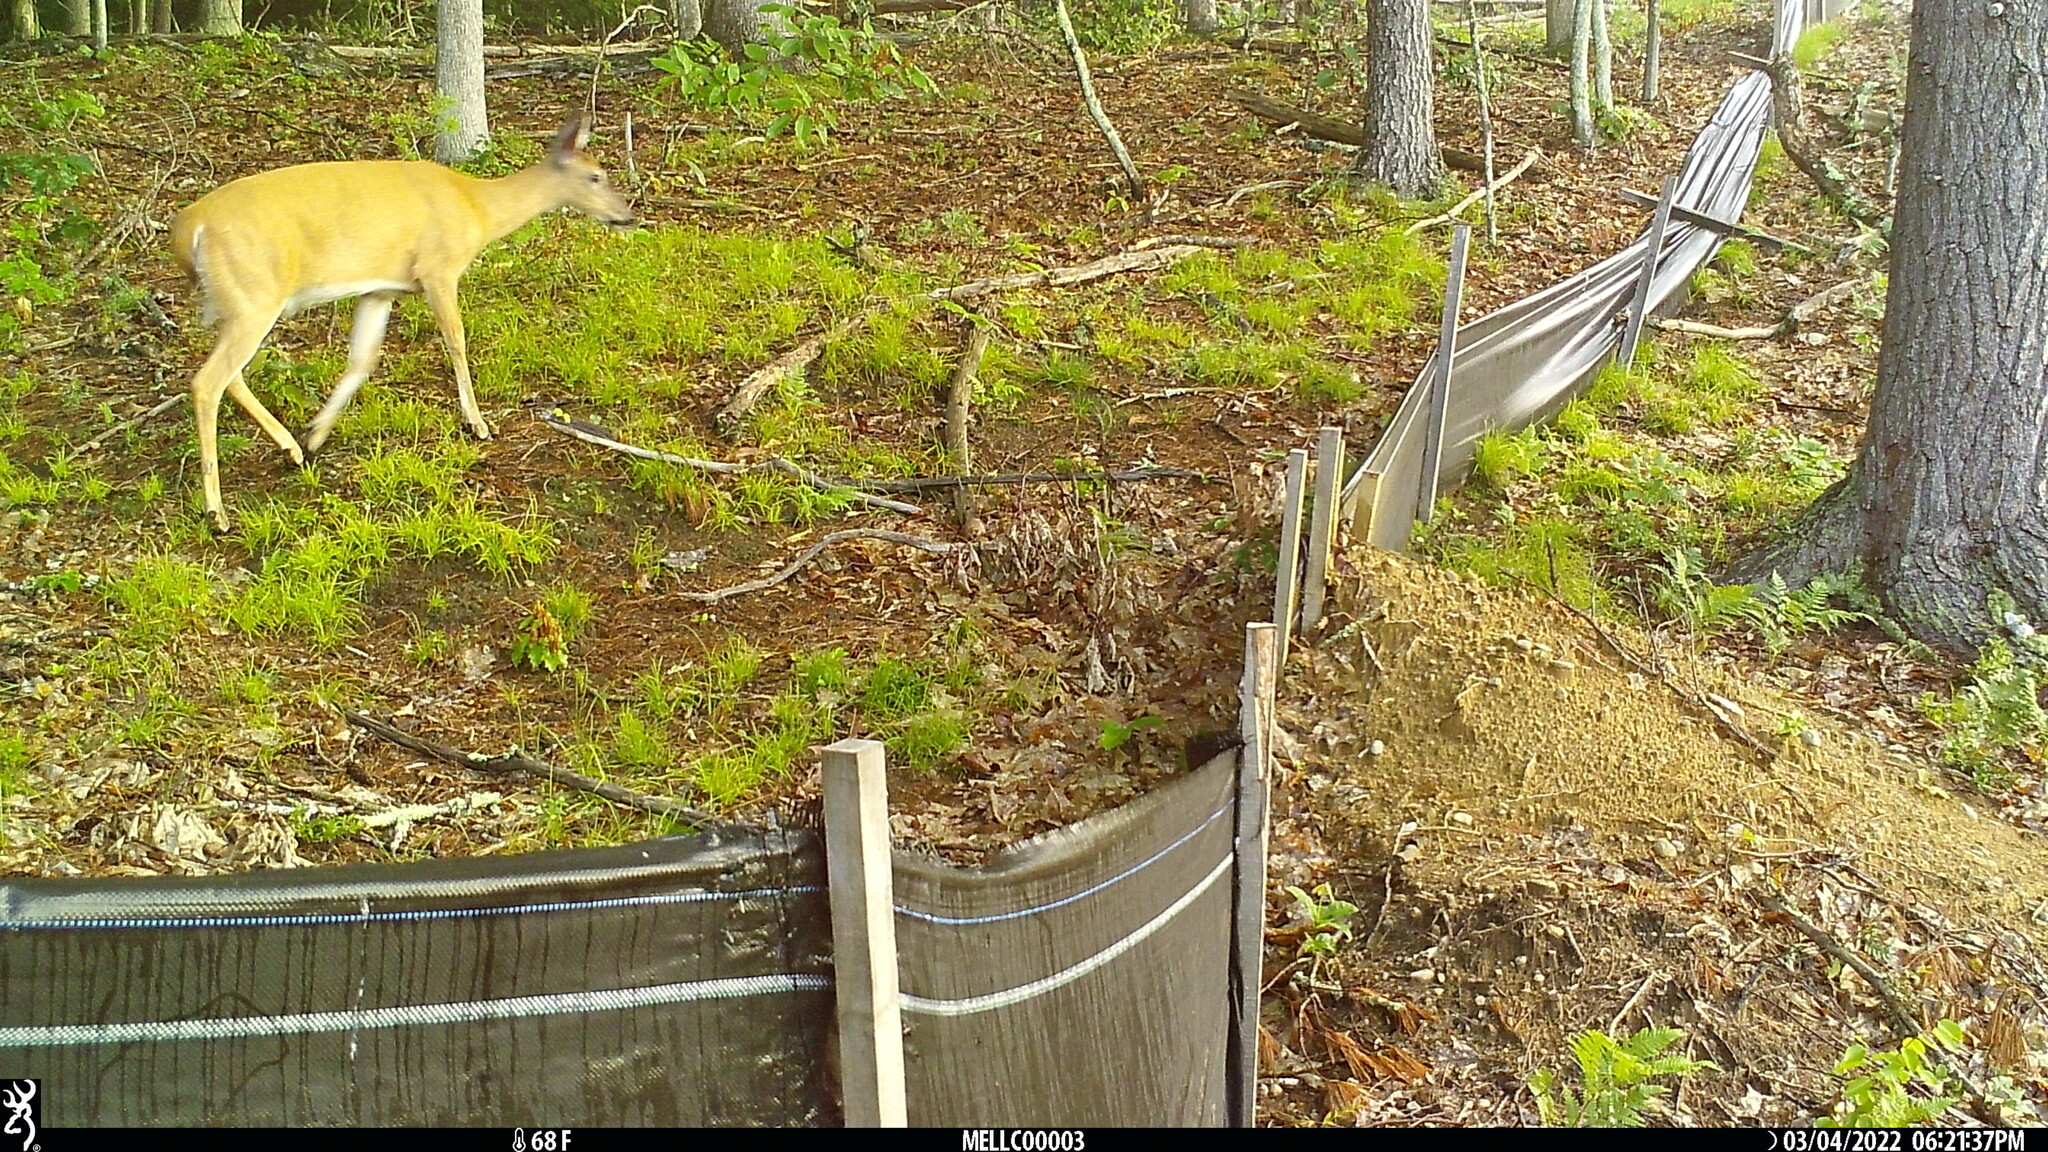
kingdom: Animalia
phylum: Chordata
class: Mammalia
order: Artiodactyla
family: Cervidae
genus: Odocoileus
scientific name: Odocoileus virginianus
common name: White-tailed deer
